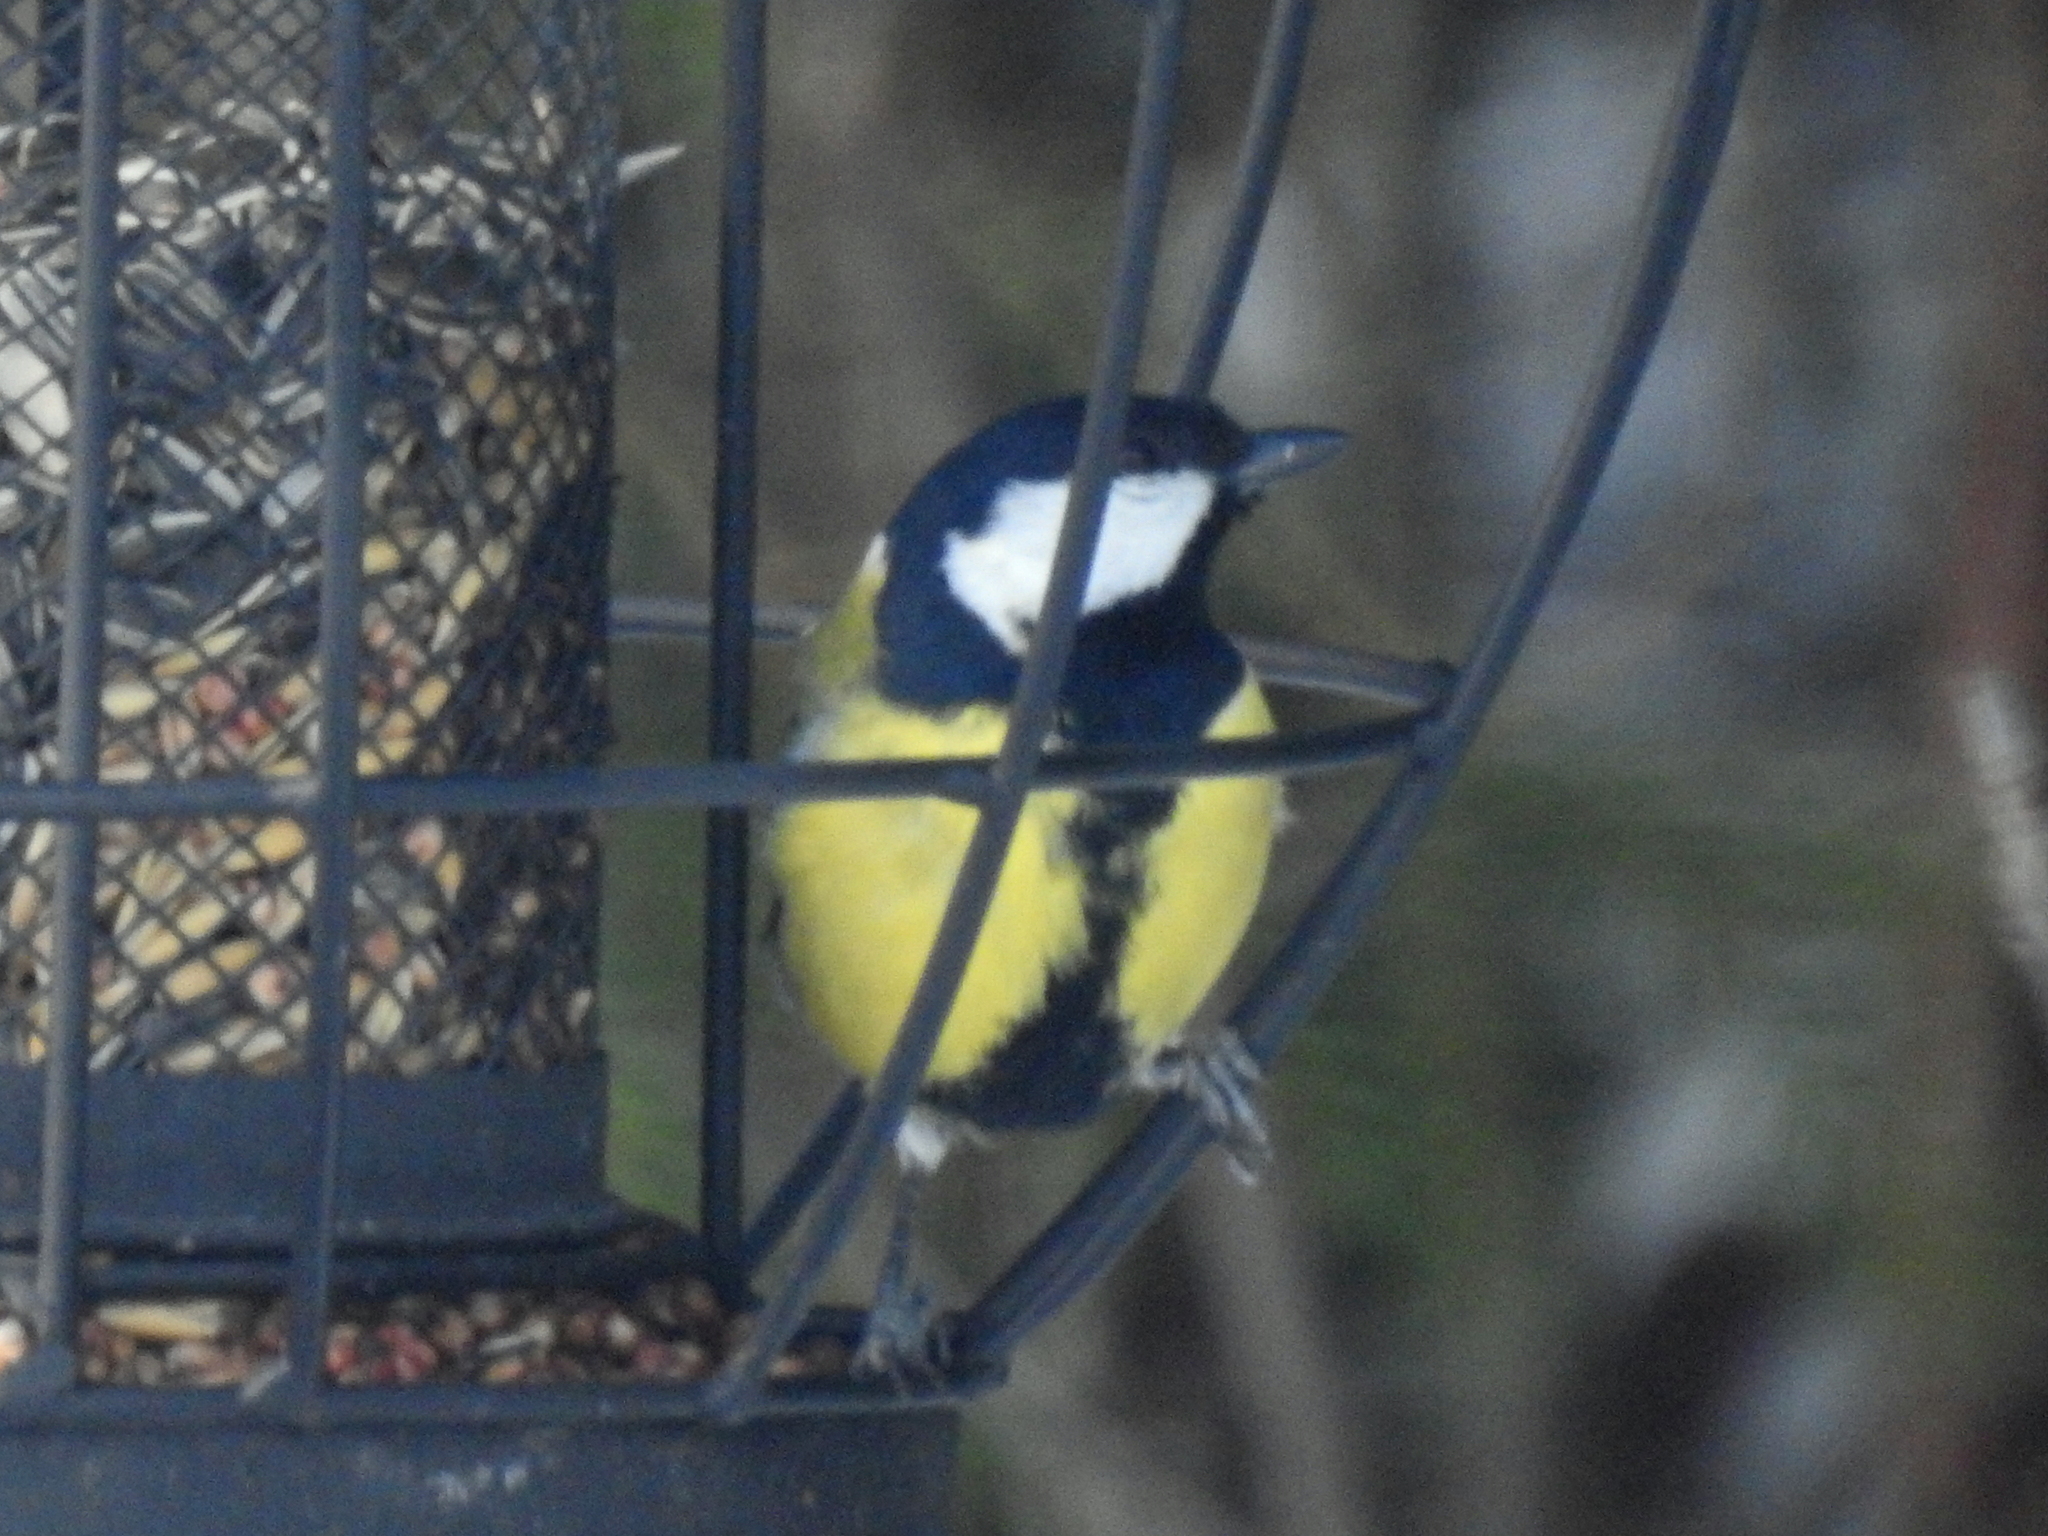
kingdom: Animalia
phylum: Chordata
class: Aves
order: Passeriformes
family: Paridae
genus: Parus
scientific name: Parus major
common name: Great tit
